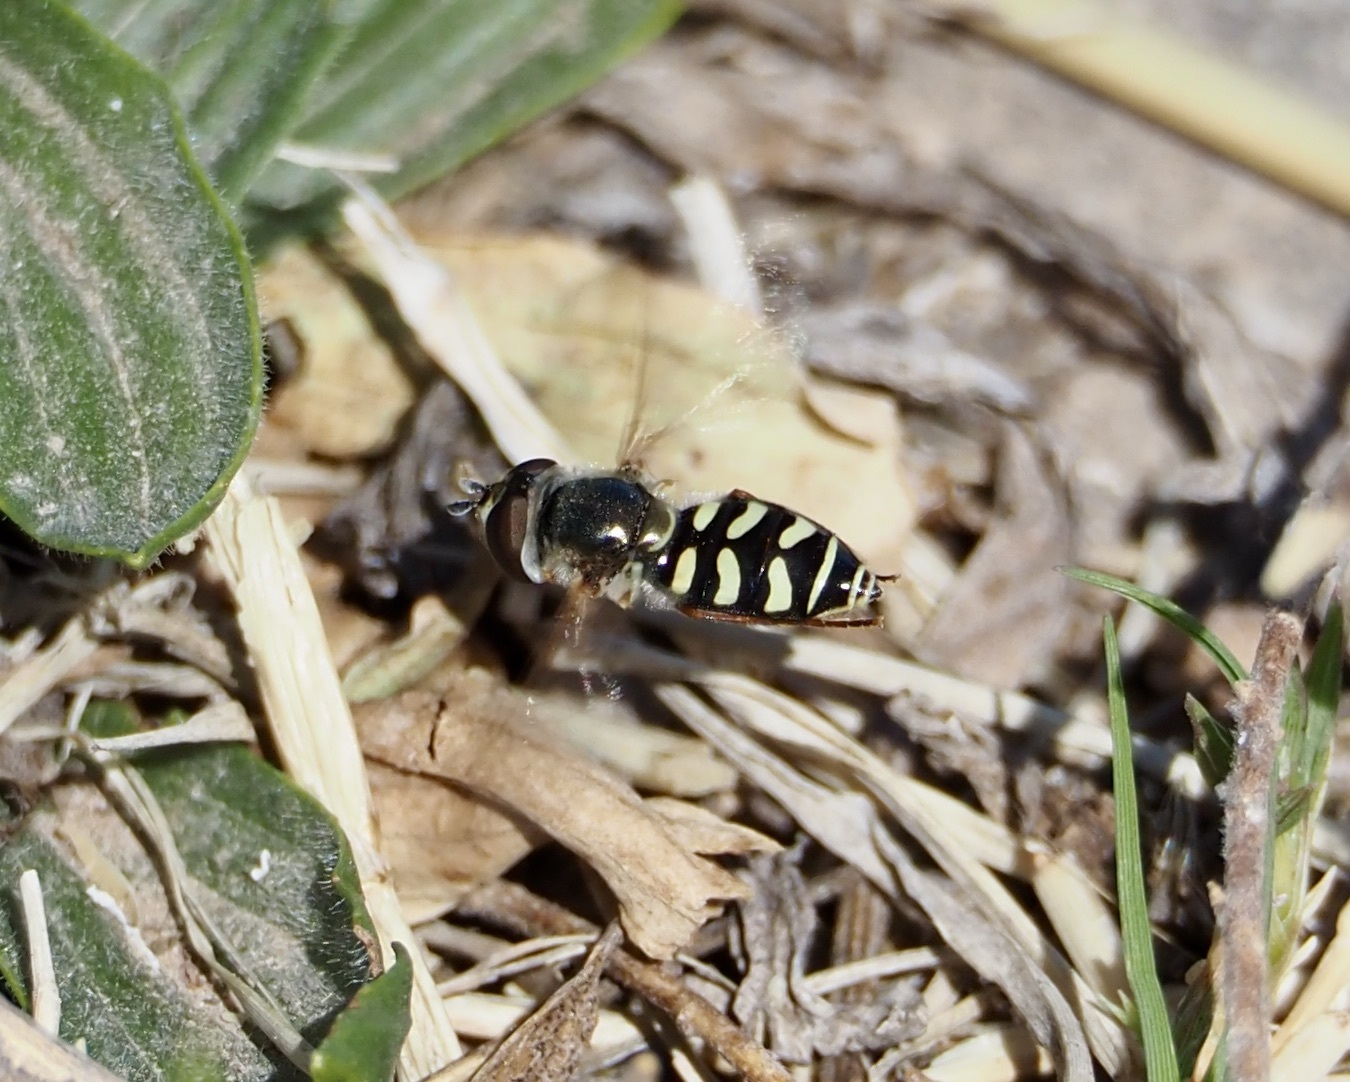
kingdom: Animalia
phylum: Arthropoda
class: Insecta
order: Diptera
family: Syrphidae
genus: Eupeodes
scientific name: Eupeodes volucris
